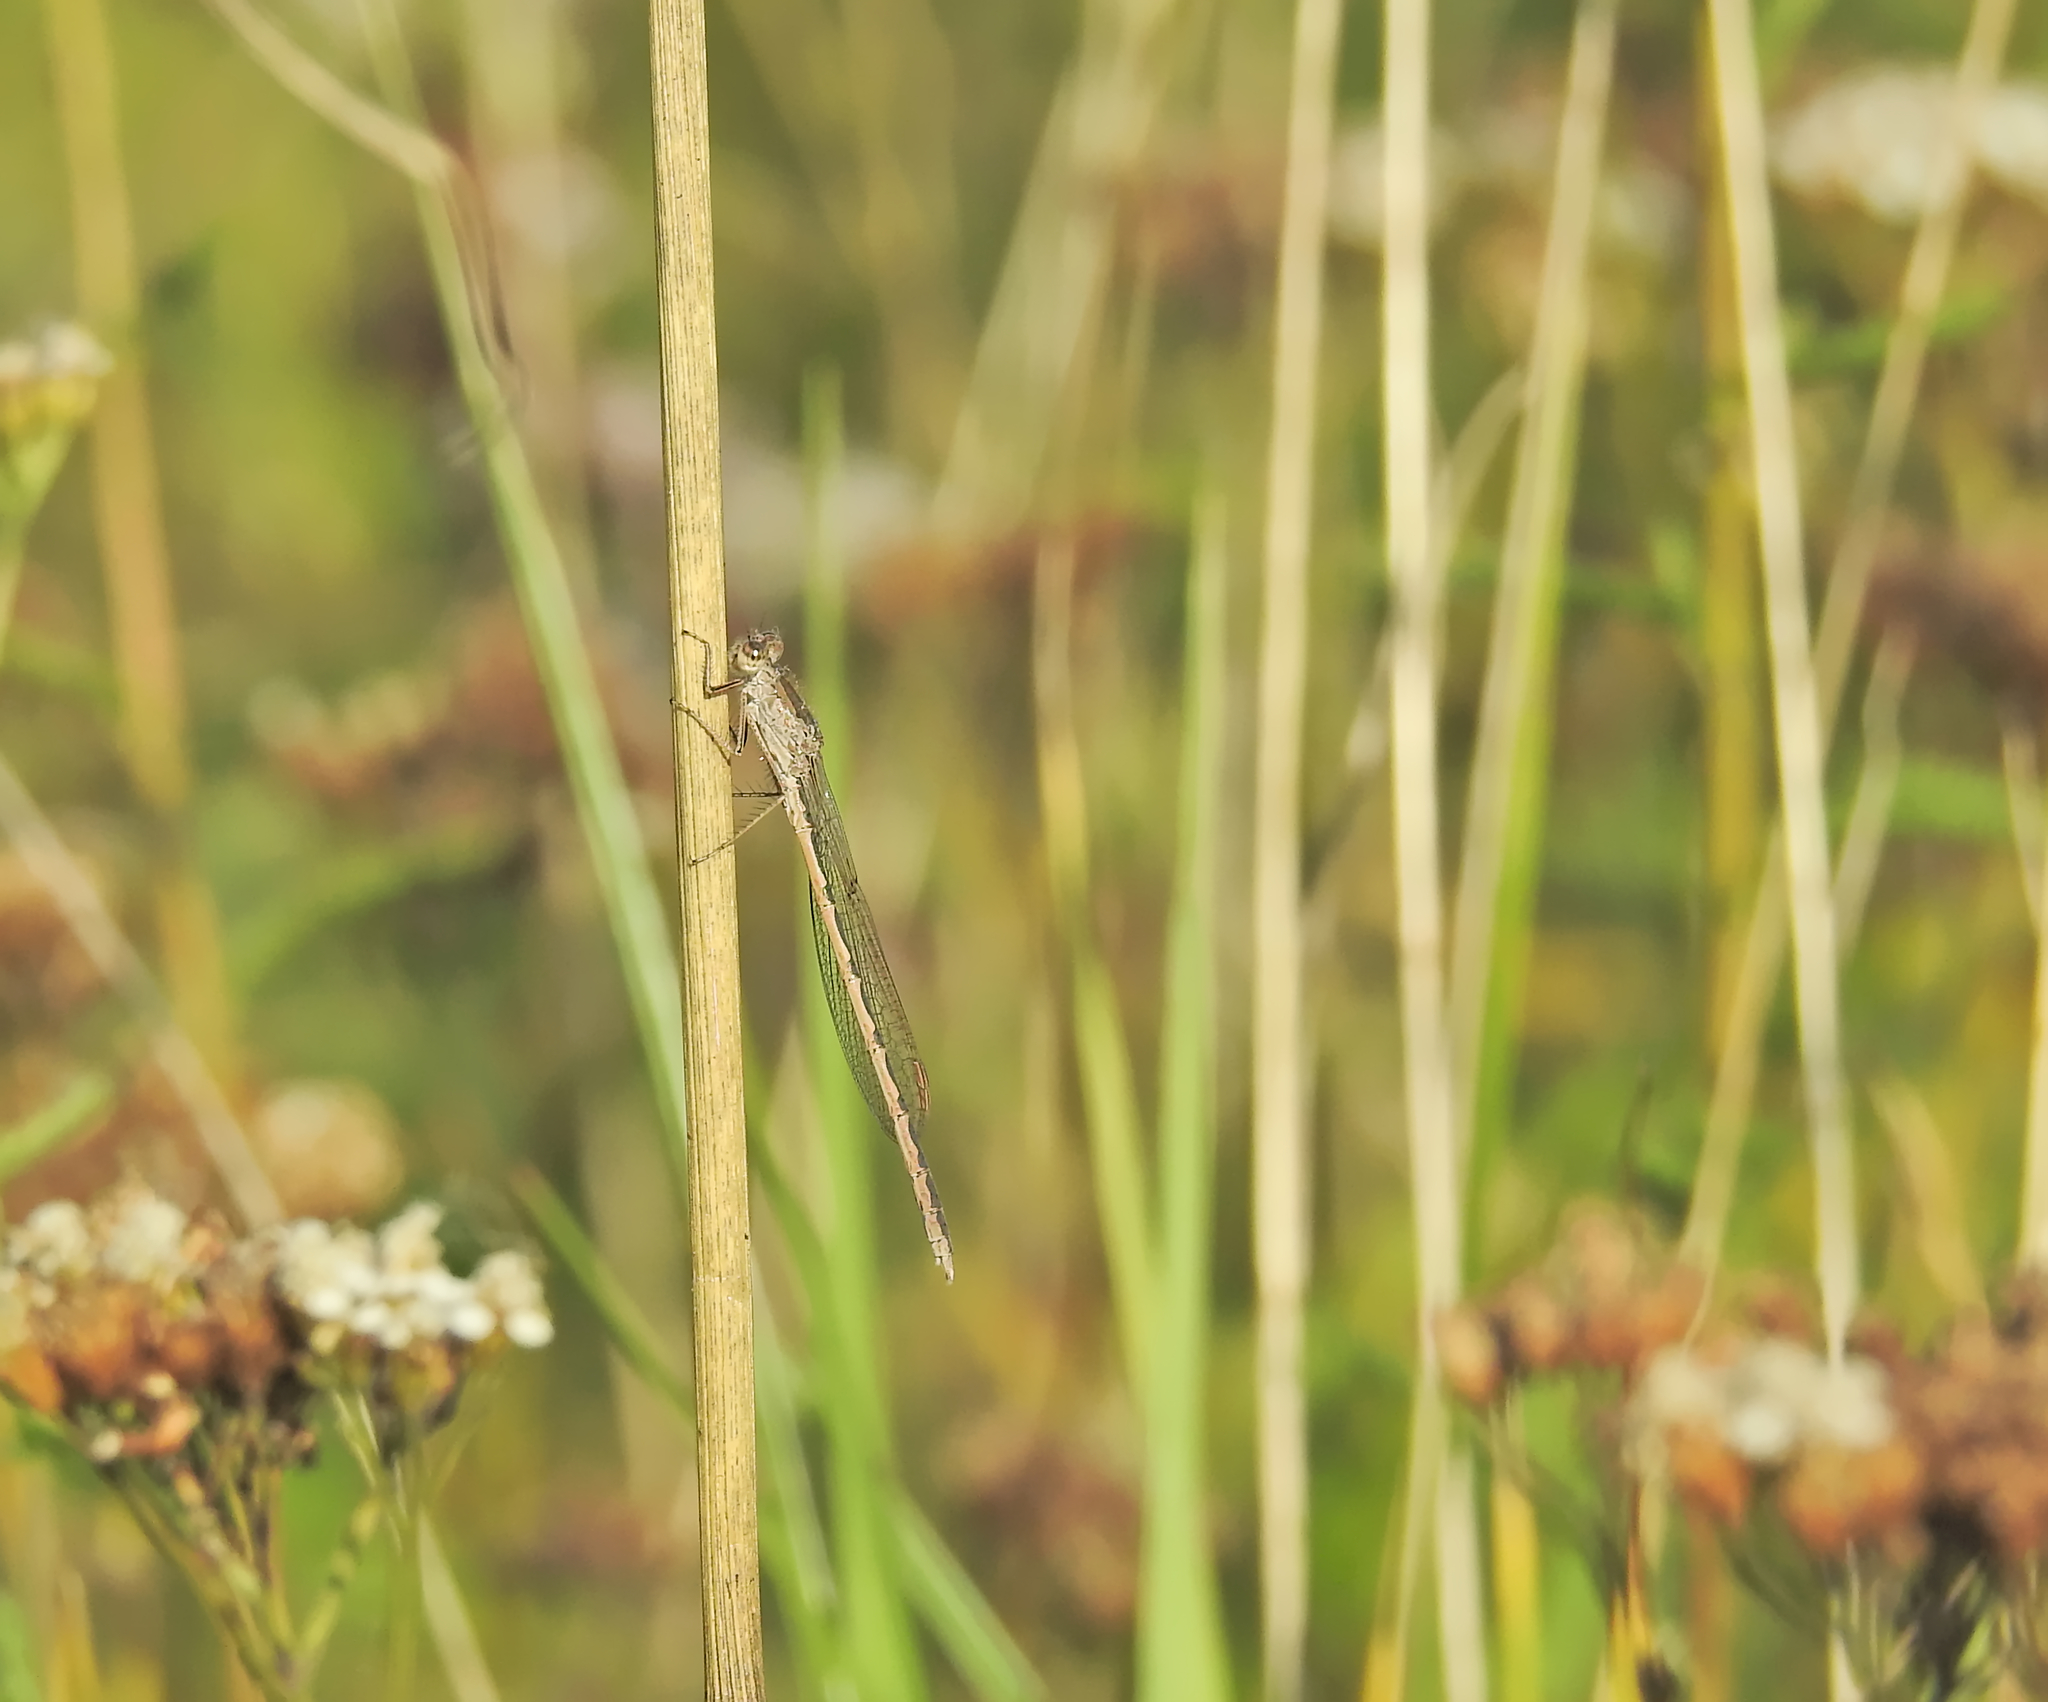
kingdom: Animalia
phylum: Arthropoda
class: Insecta
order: Odonata
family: Lestidae
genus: Sympecma
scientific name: Sympecma paedisca
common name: Siberian winter damsel
